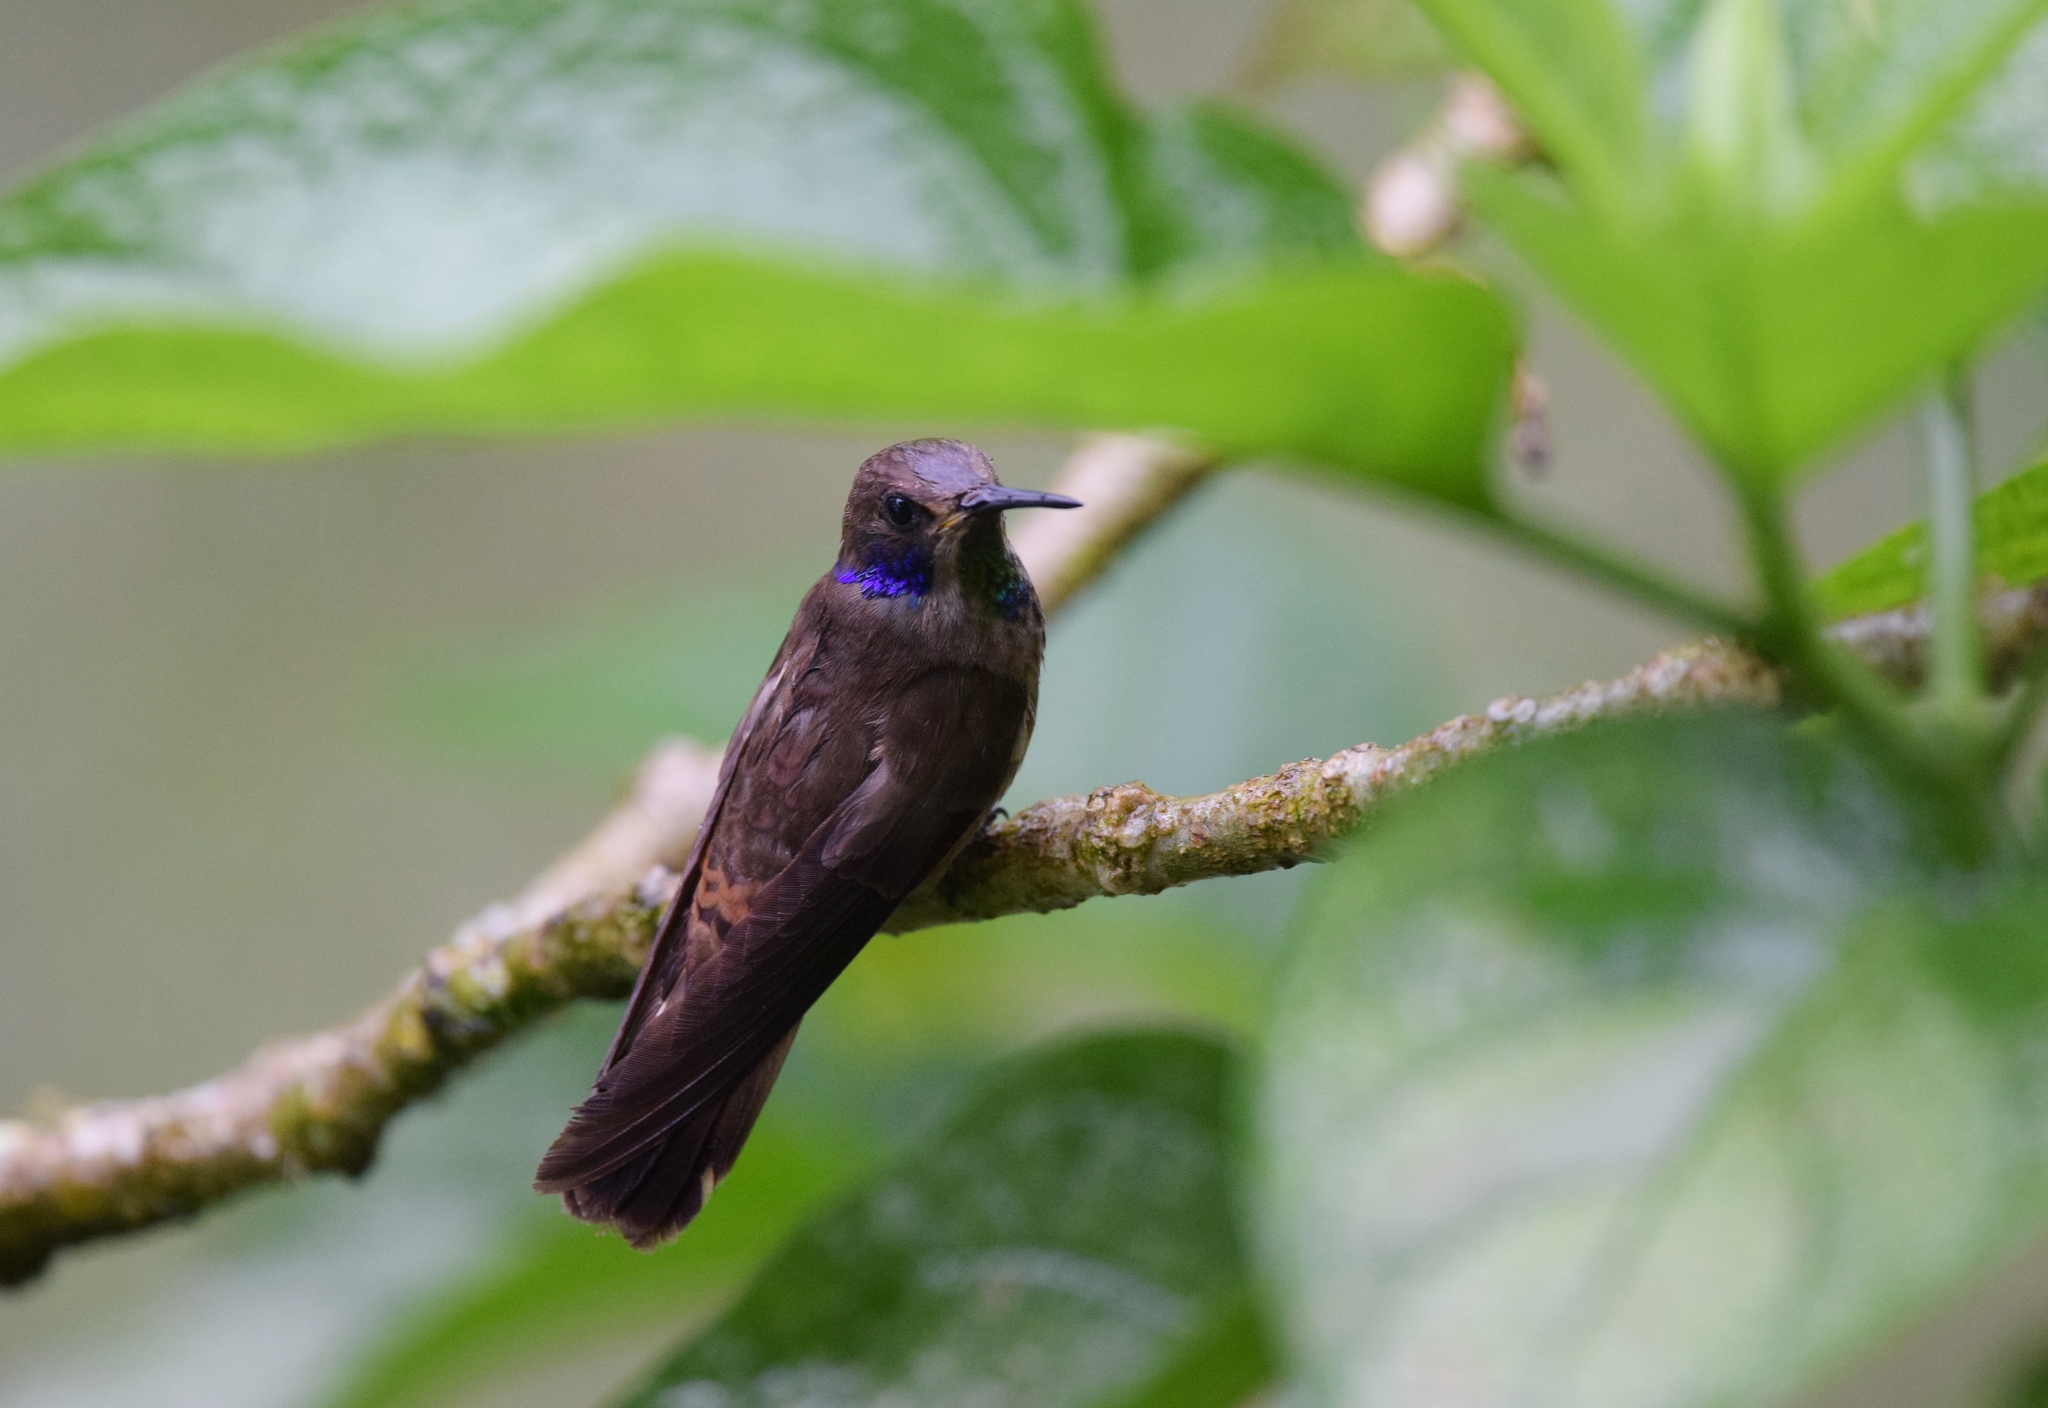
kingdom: Animalia
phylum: Chordata
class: Aves
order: Apodiformes
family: Trochilidae
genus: Colibri
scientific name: Colibri delphinae
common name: Brown violetear
